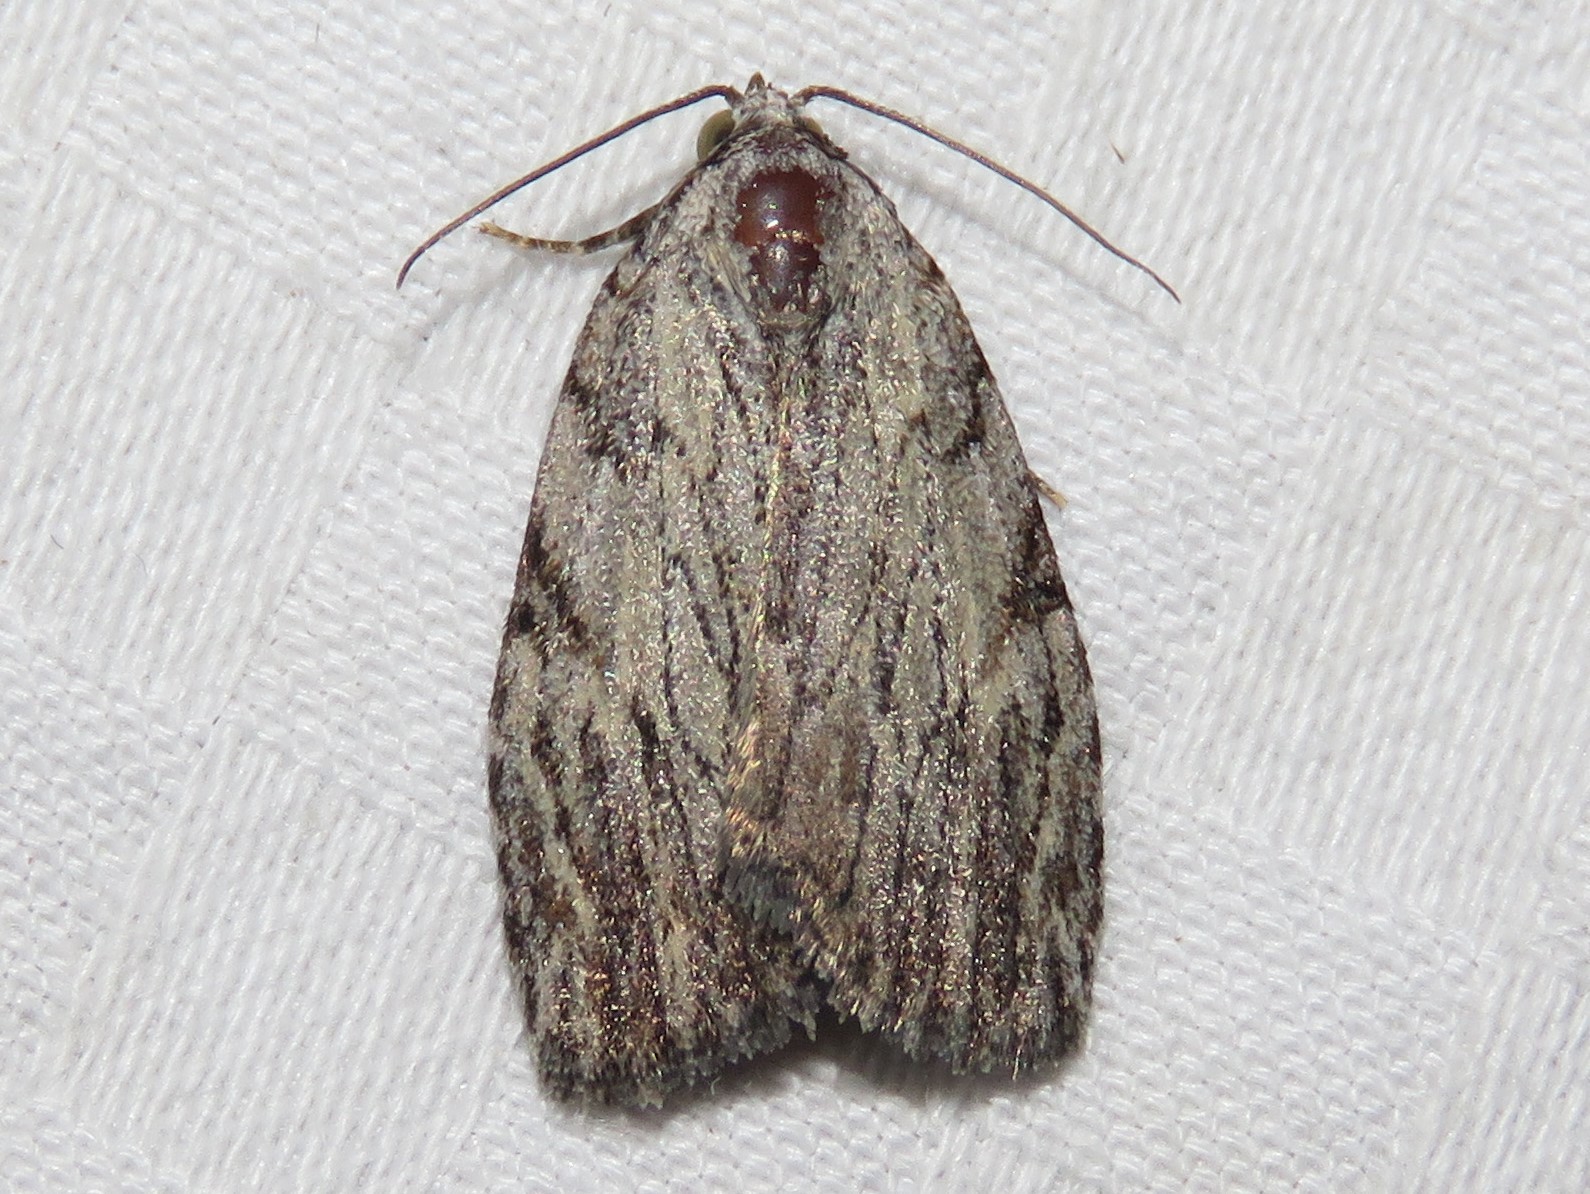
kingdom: Animalia
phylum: Arthropoda
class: Insecta
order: Lepidoptera
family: Noctuidae
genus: Balsa
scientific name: Balsa tristrigella
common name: Three-lined balsa moth
